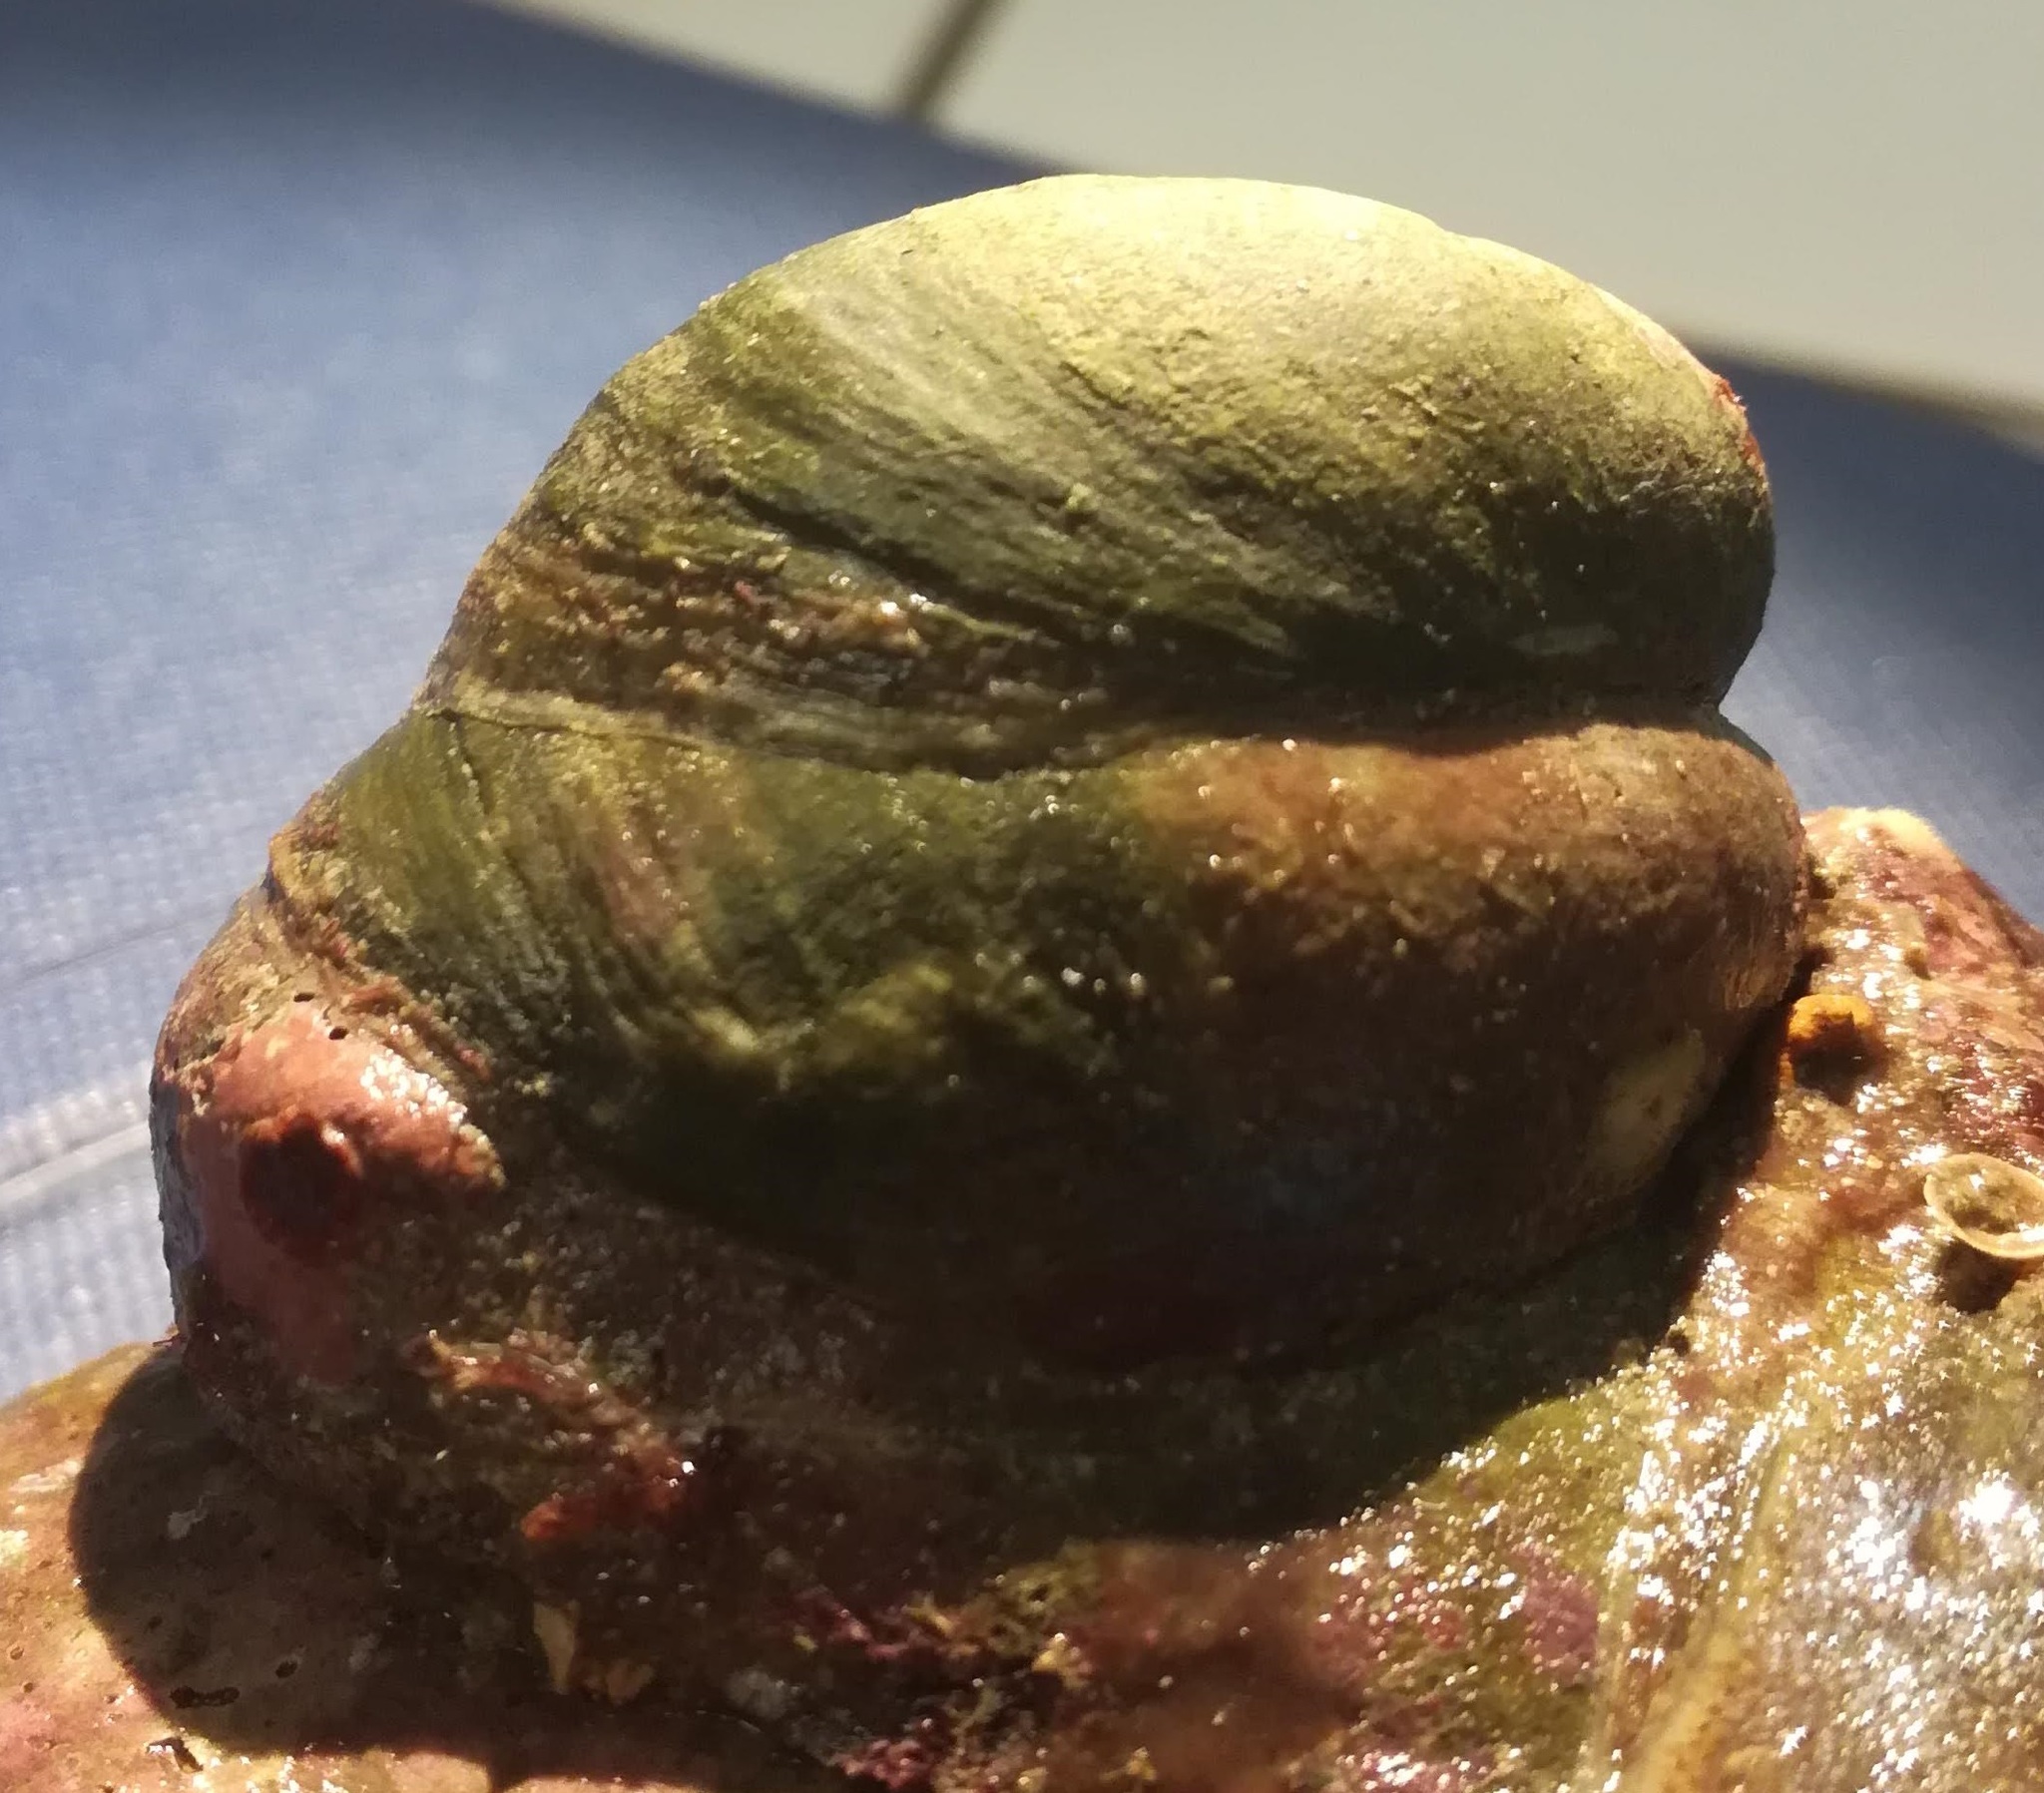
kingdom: Animalia
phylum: Mollusca
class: Gastropoda
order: Littorinimorpha
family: Calyptraeidae
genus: Crepidula
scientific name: Crepidula fornicata
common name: Slipper limpet
